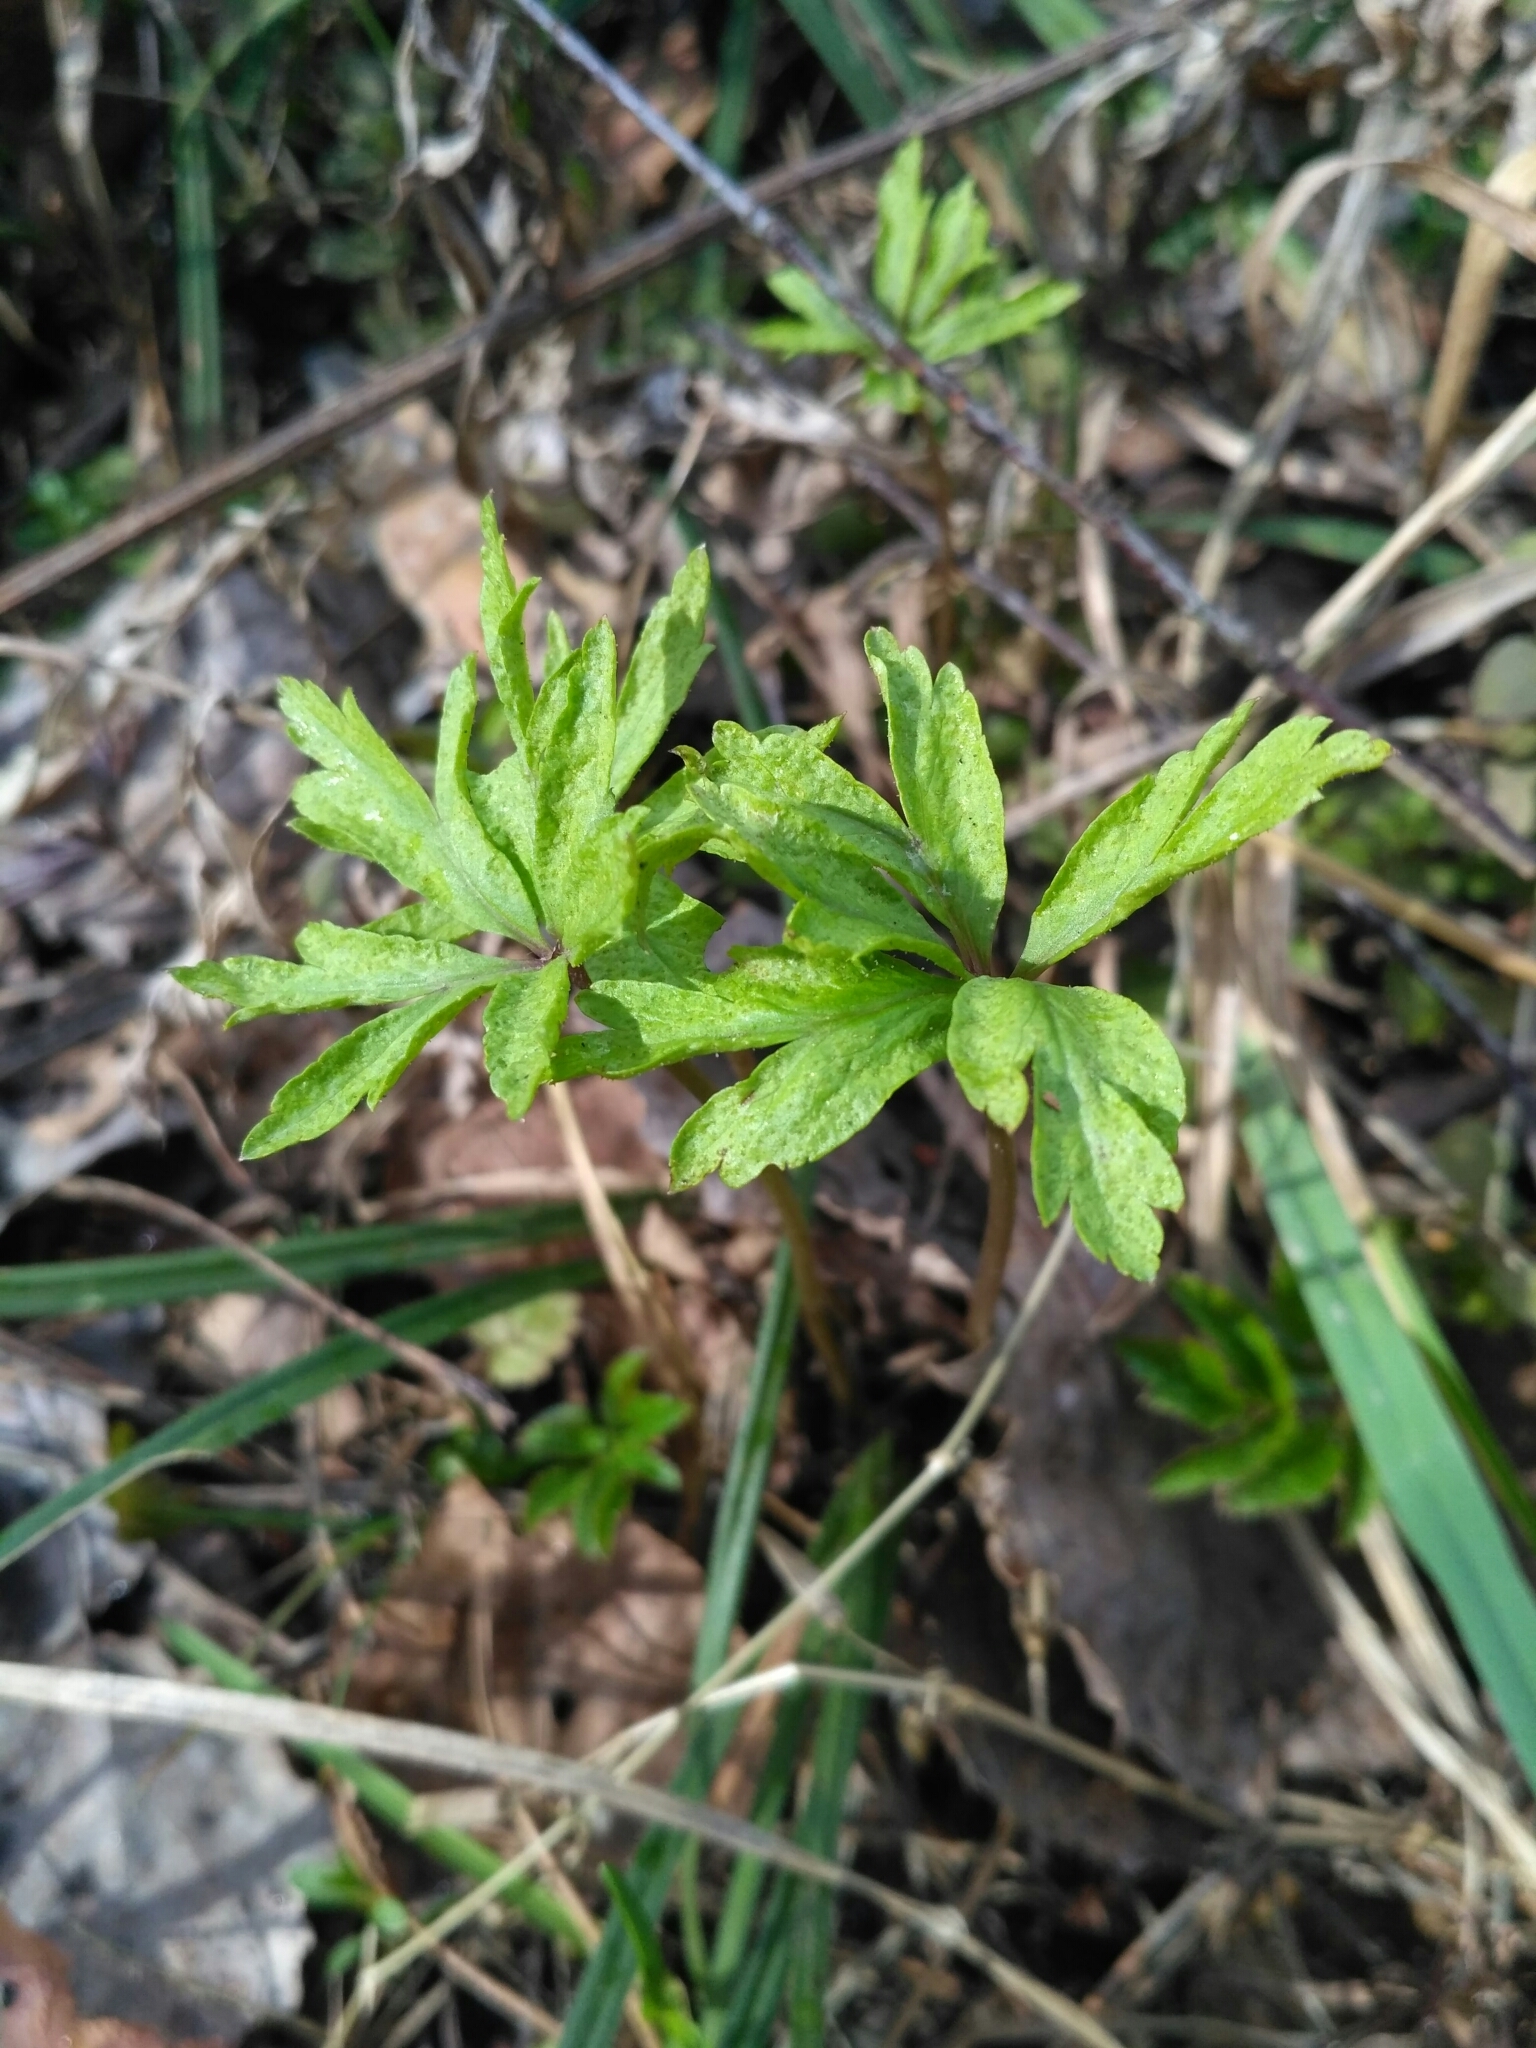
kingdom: Plantae
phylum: Tracheophyta
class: Magnoliopsida
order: Ranunculales
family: Ranunculaceae
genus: Anemone
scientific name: Anemone ranunculoides
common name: Yellow anemone
